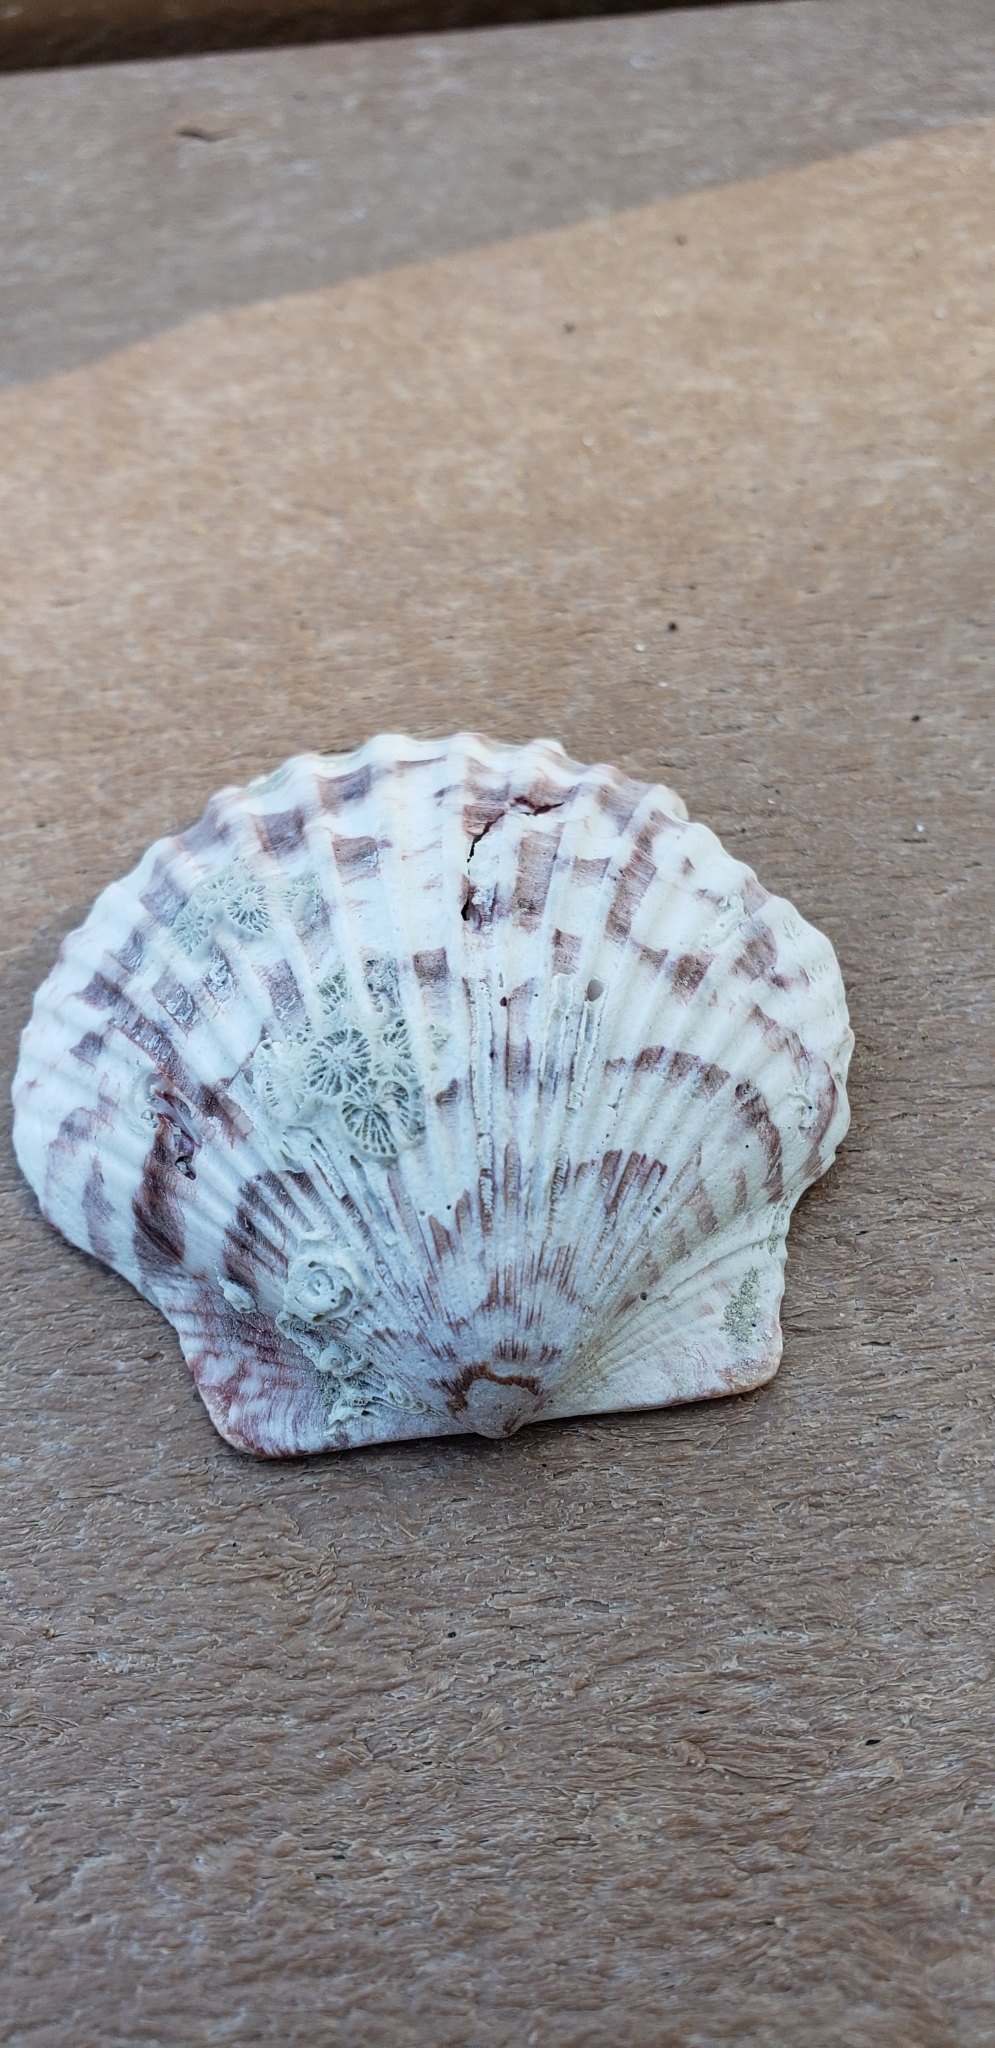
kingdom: Animalia
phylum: Mollusca
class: Bivalvia
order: Pectinida
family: Pectinidae
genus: Argopecten
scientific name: Argopecten gibbus
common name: Atlantic calico scallop
